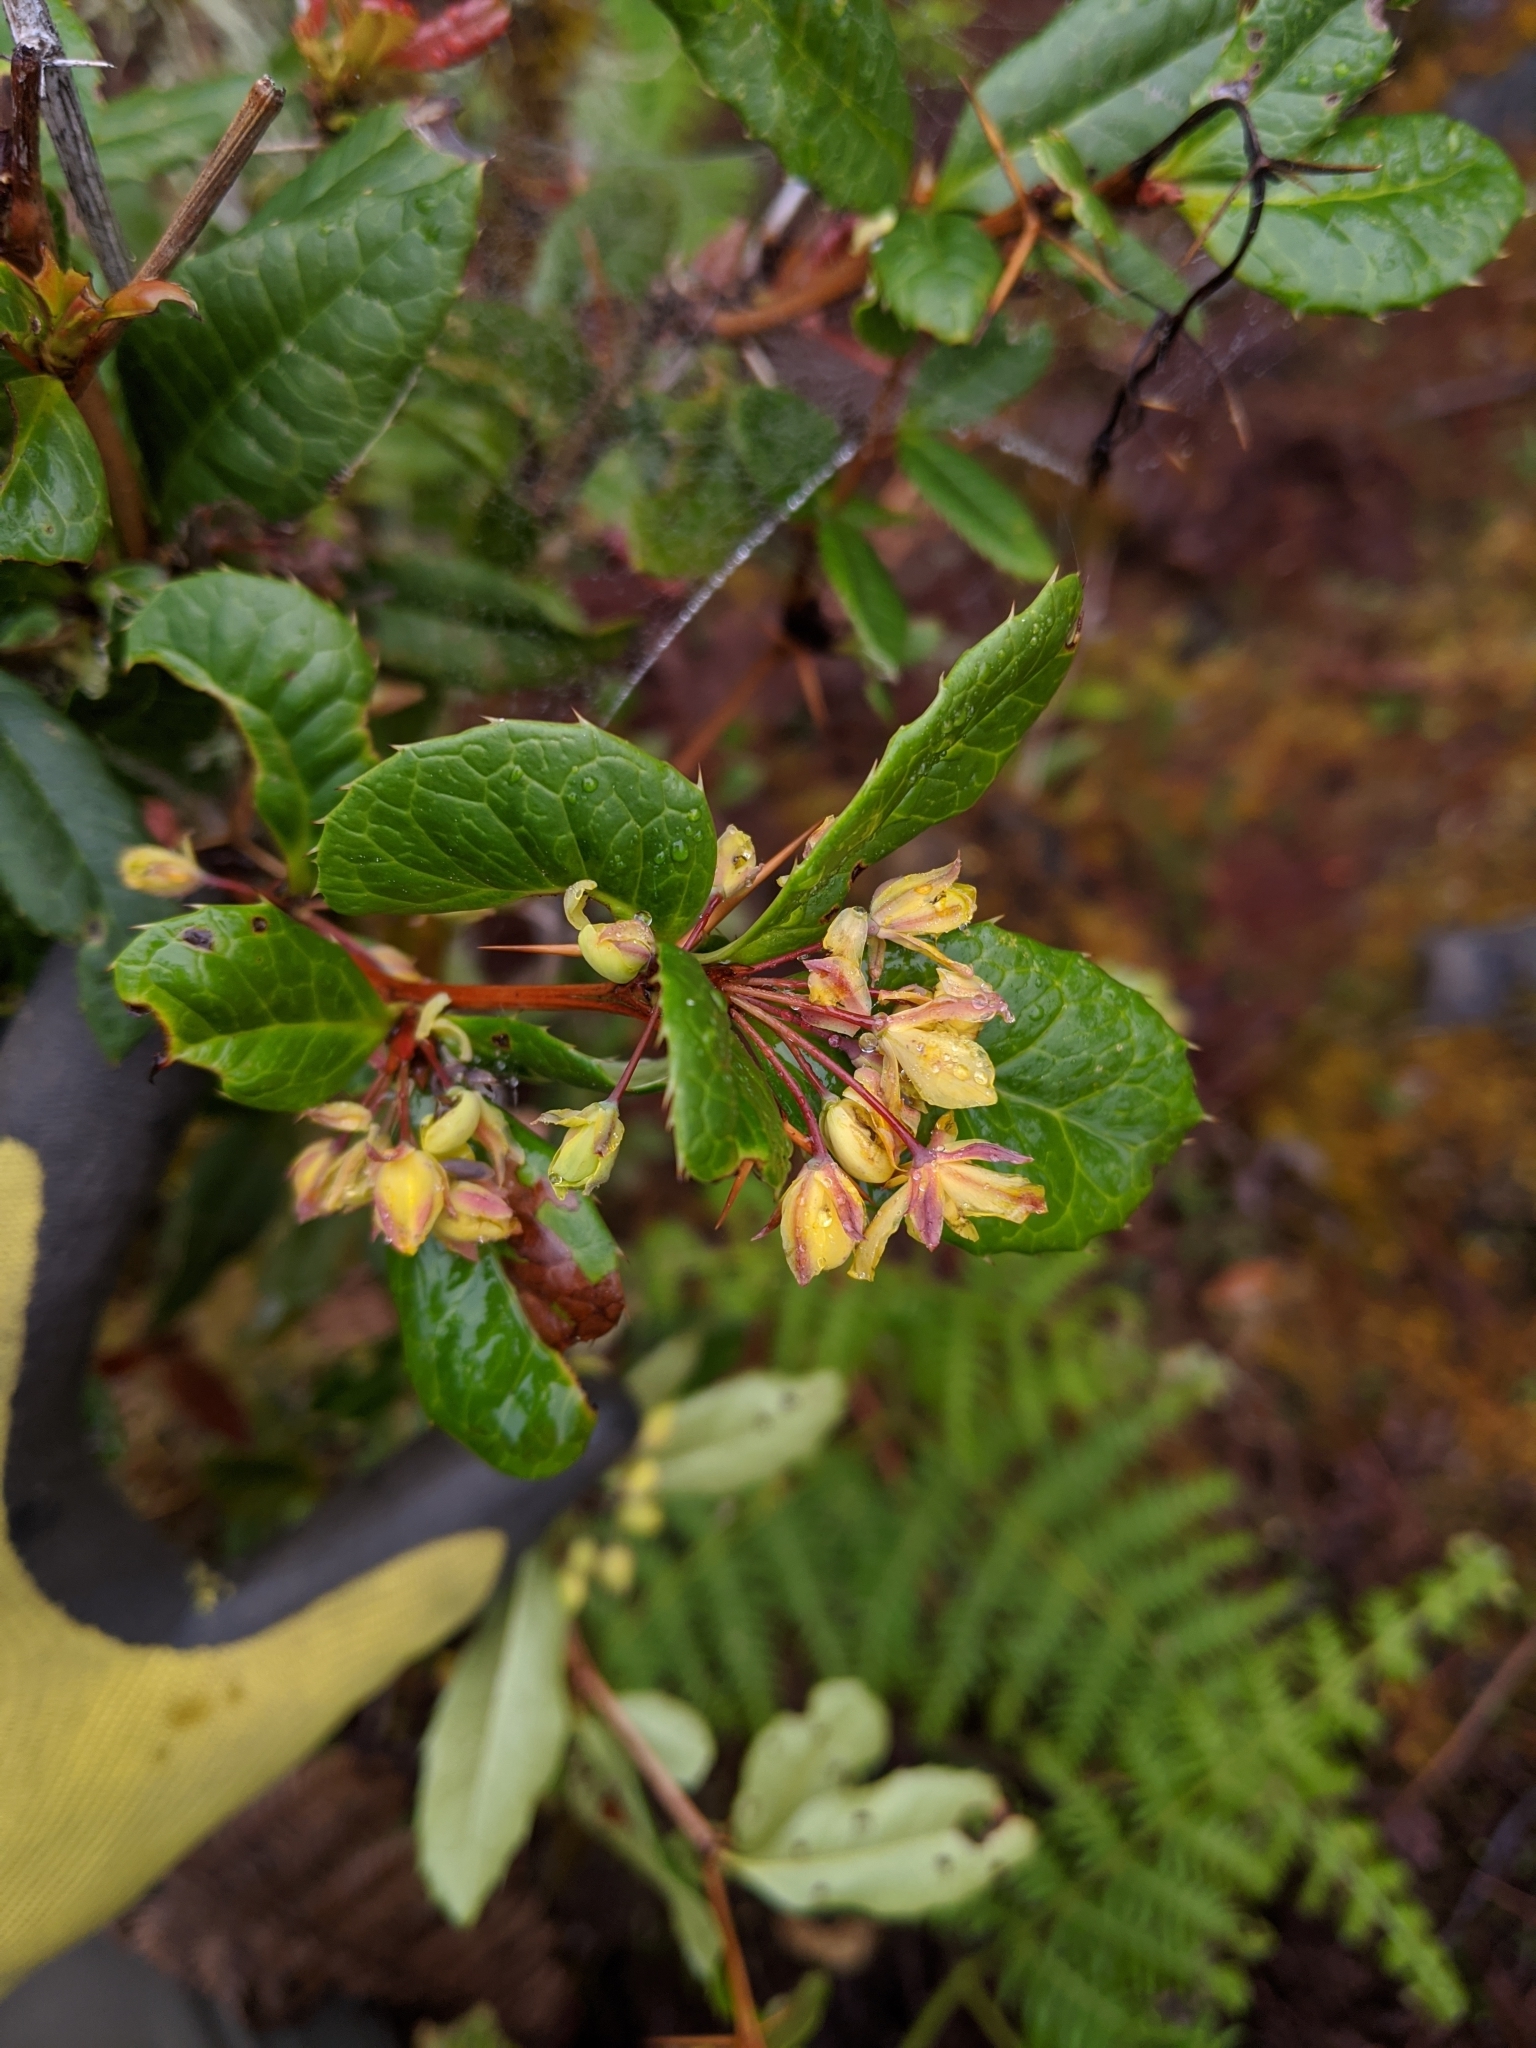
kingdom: Plantae
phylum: Tracheophyta
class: Magnoliopsida
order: Ranunculales
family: Berberidaceae
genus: Berberis
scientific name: Berberis kawakamii
